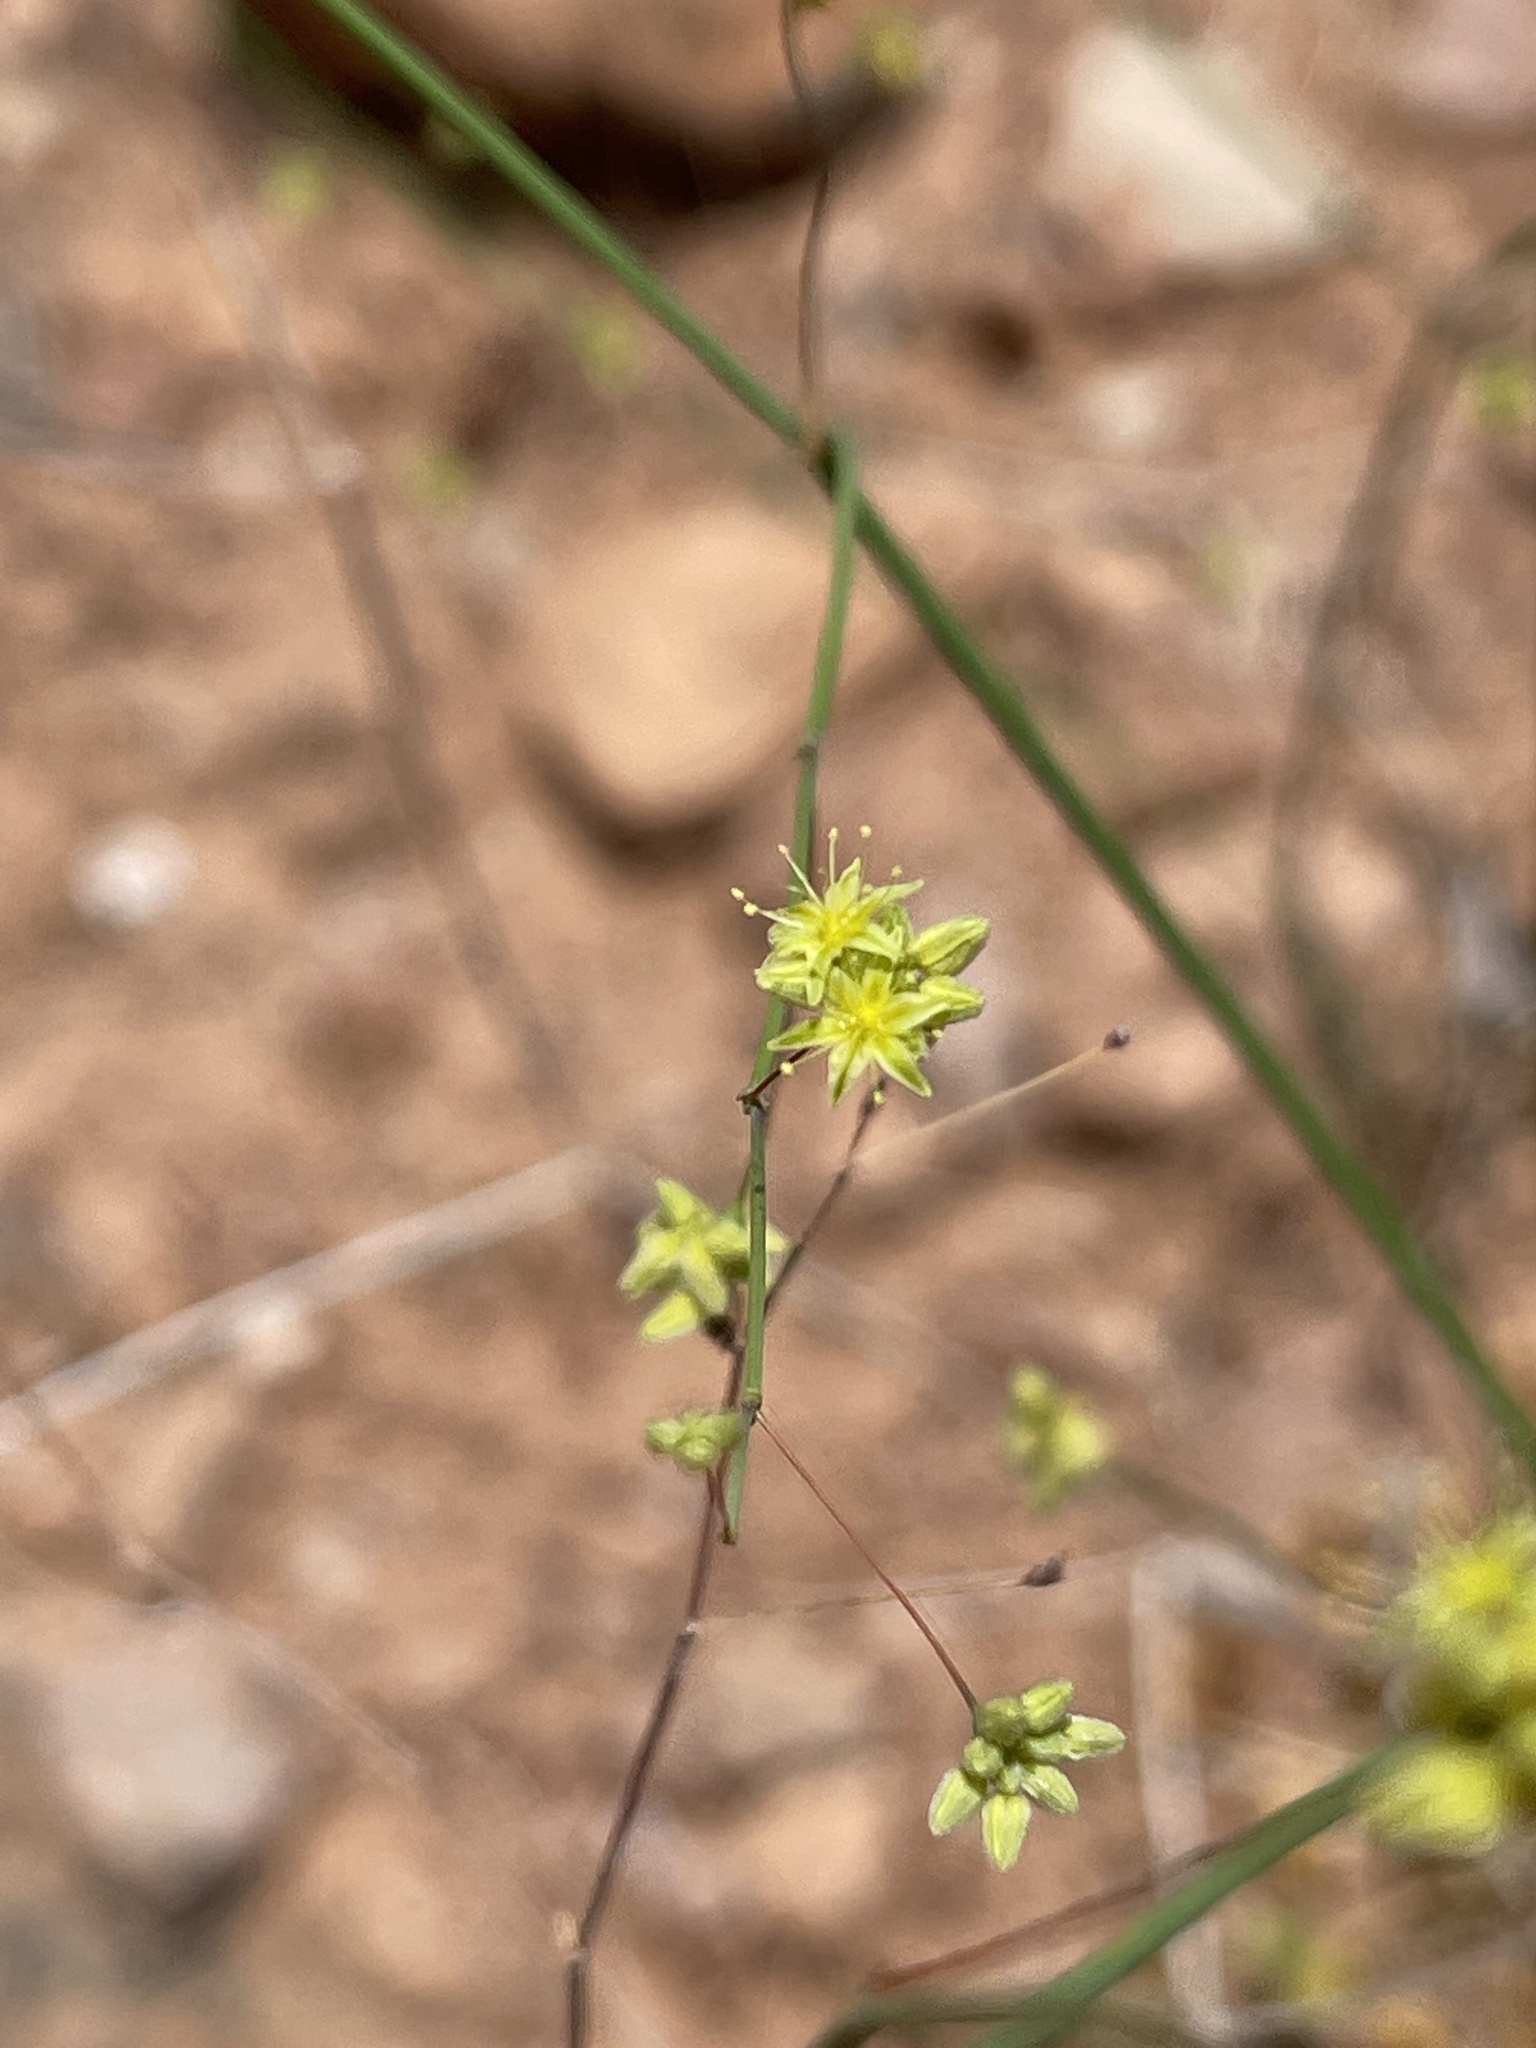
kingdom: Plantae
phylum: Tracheophyta
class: Magnoliopsida
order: Caryophyllales
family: Polygonaceae
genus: Eriogonum
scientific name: Eriogonum inflatum
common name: Desert trumpet
